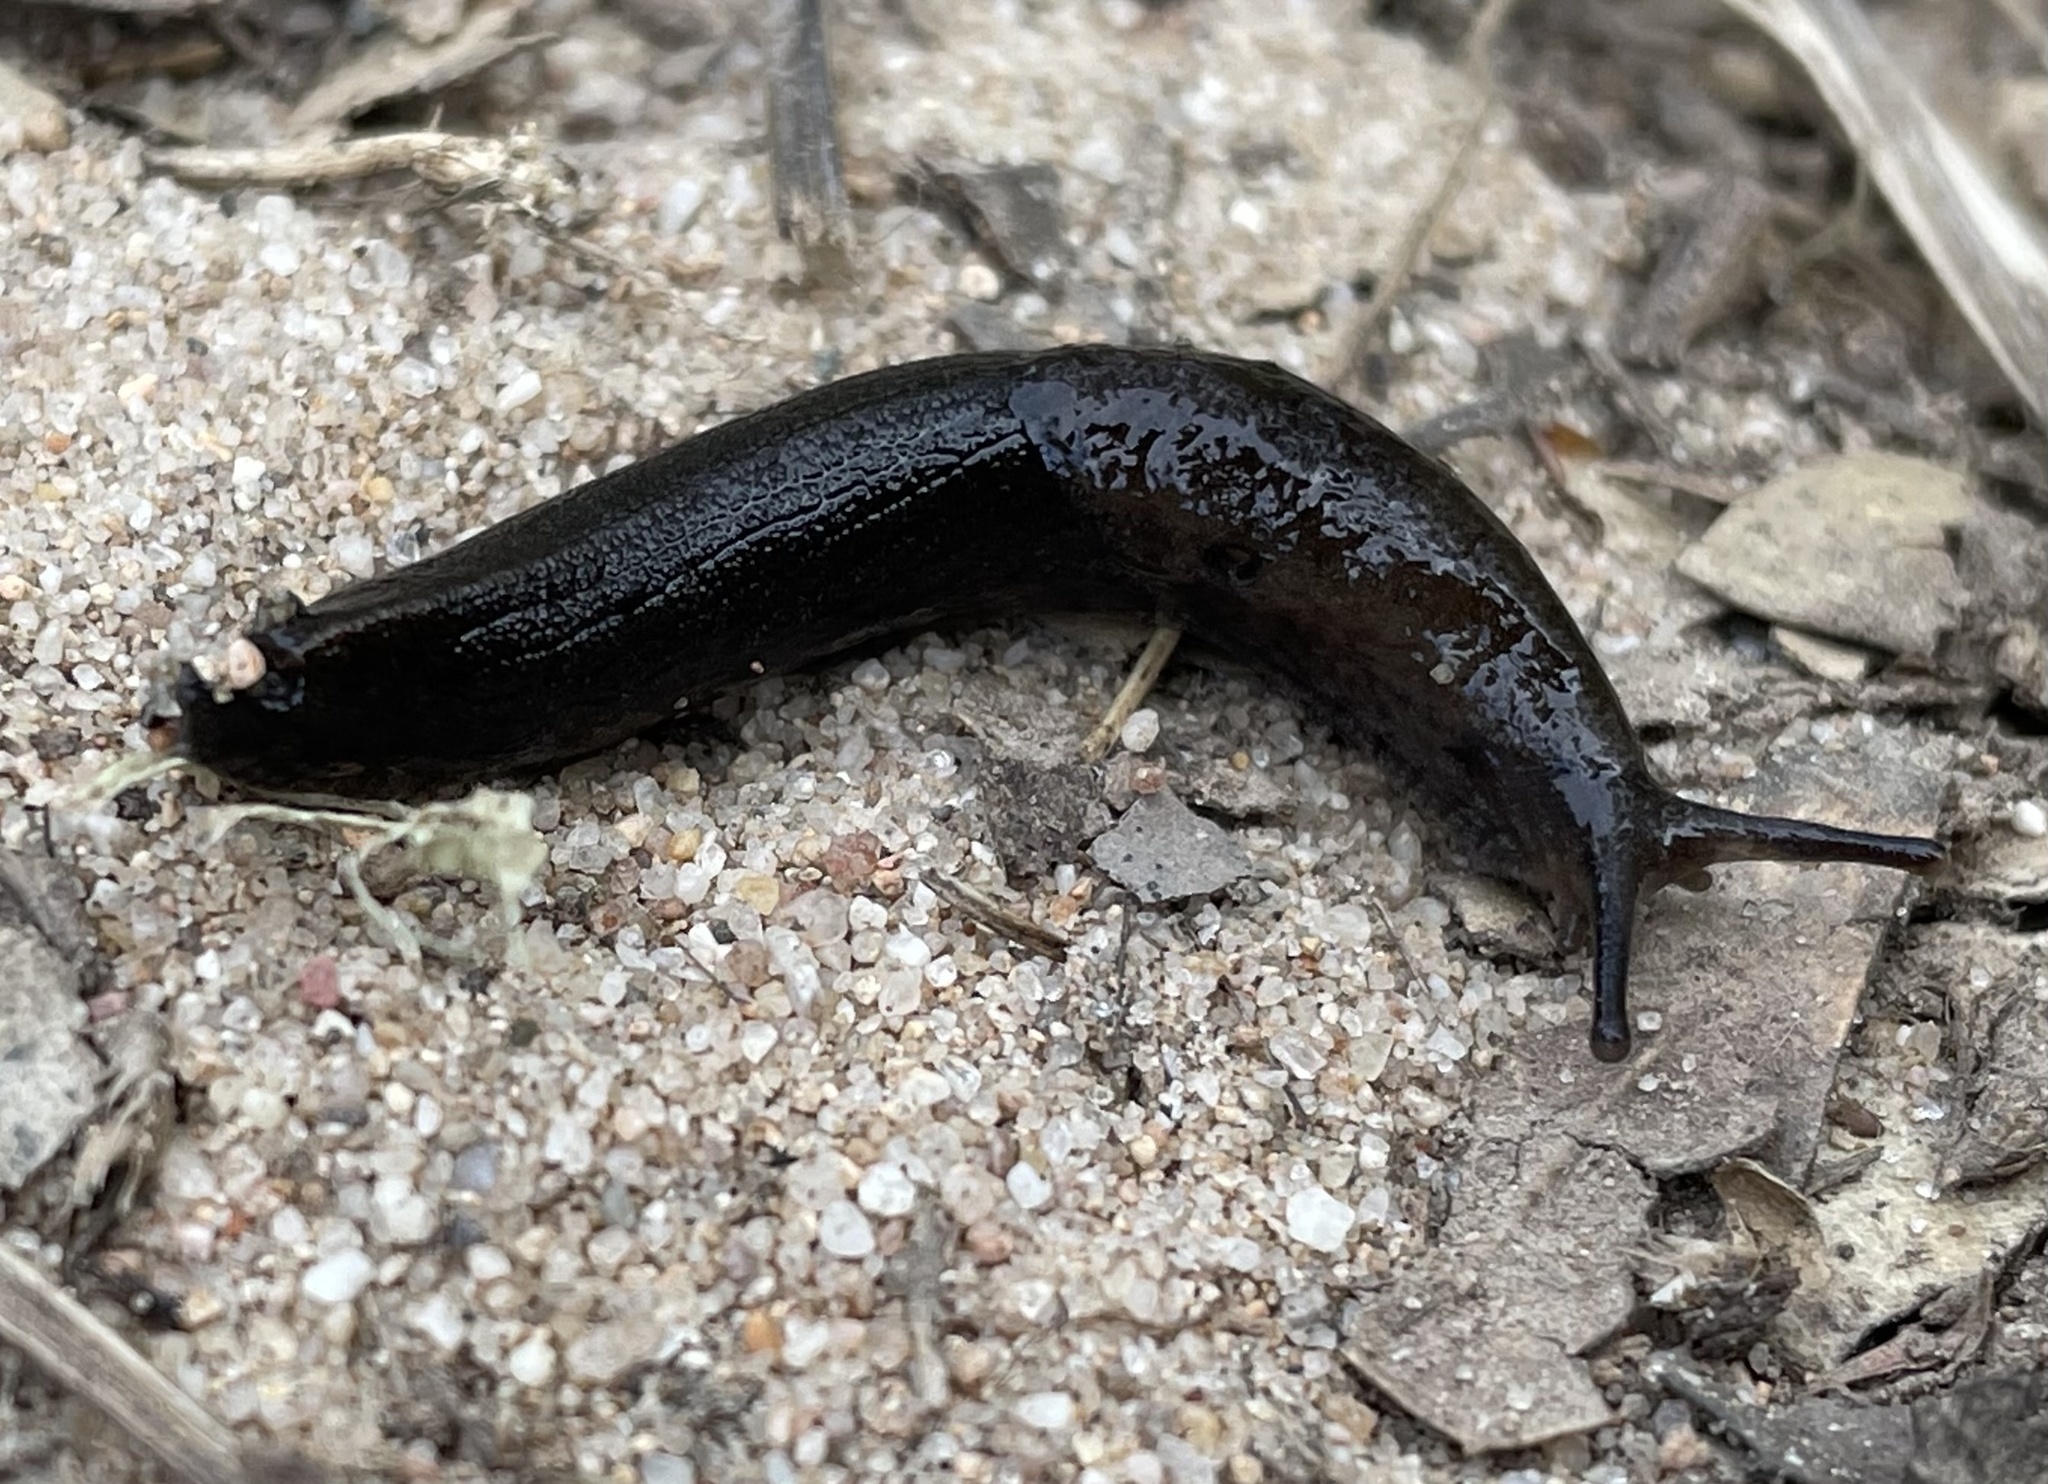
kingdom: Animalia
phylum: Mollusca
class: Gastropoda
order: Stylommatophora
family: Ariolimacidae
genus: Hesperarion
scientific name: Hesperarion niger
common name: Black western slug
